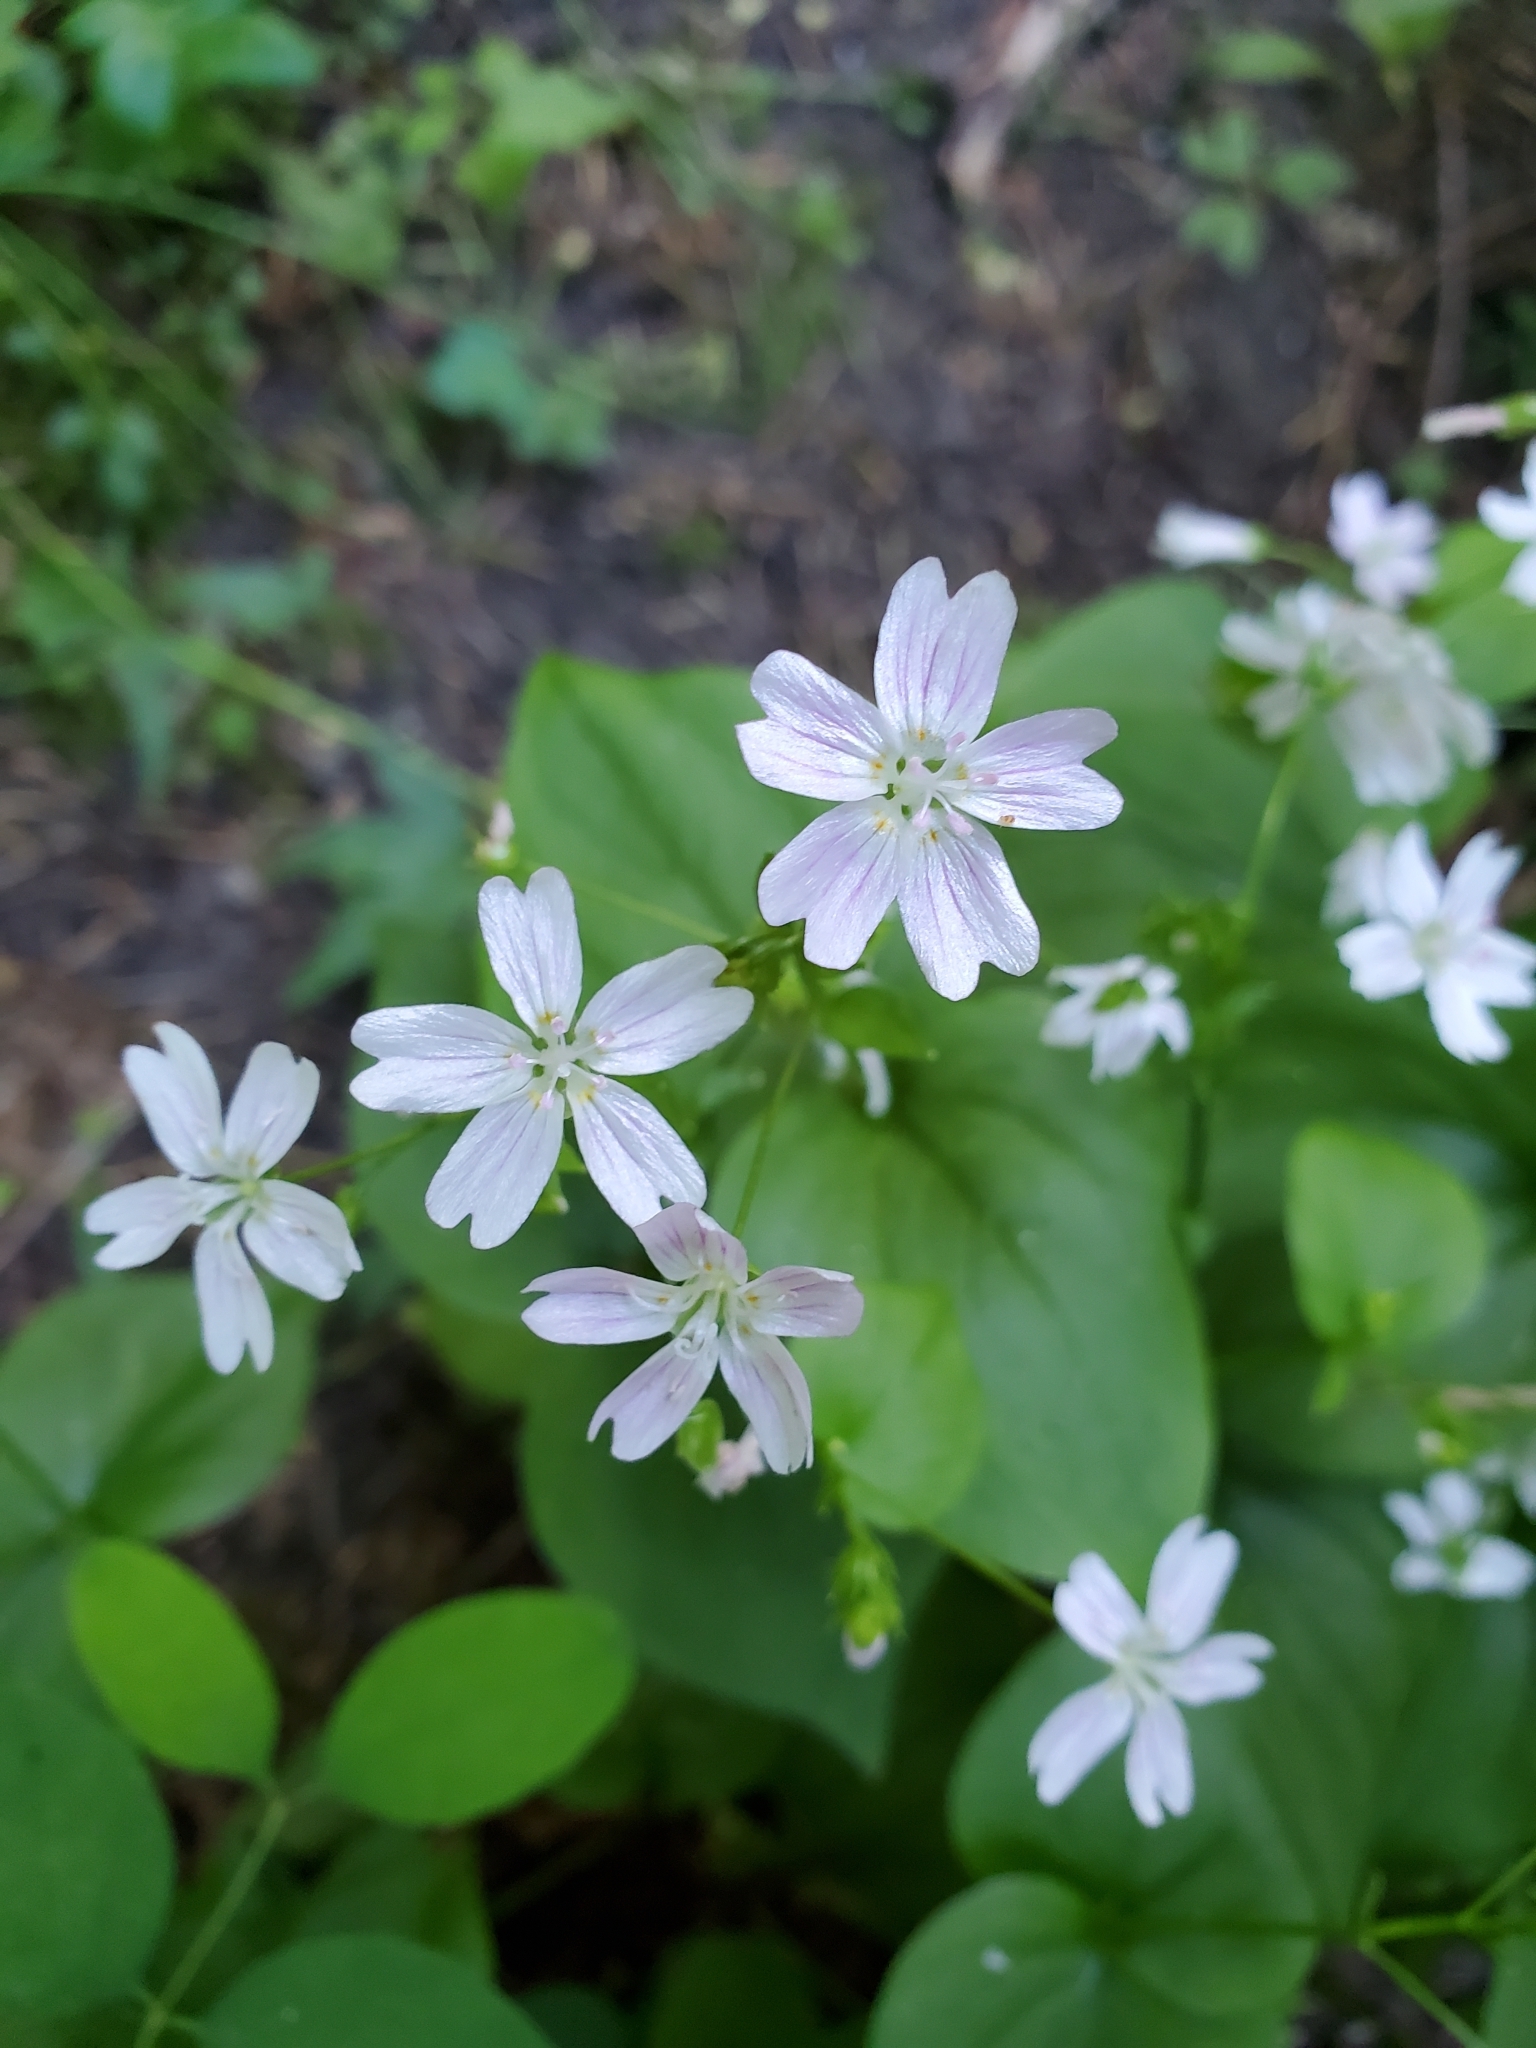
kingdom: Plantae
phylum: Tracheophyta
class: Magnoliopsida
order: Caryophyllales
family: Montiaceae
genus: Claytonia
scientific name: Claytonia sibirica
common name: Pink purslane
